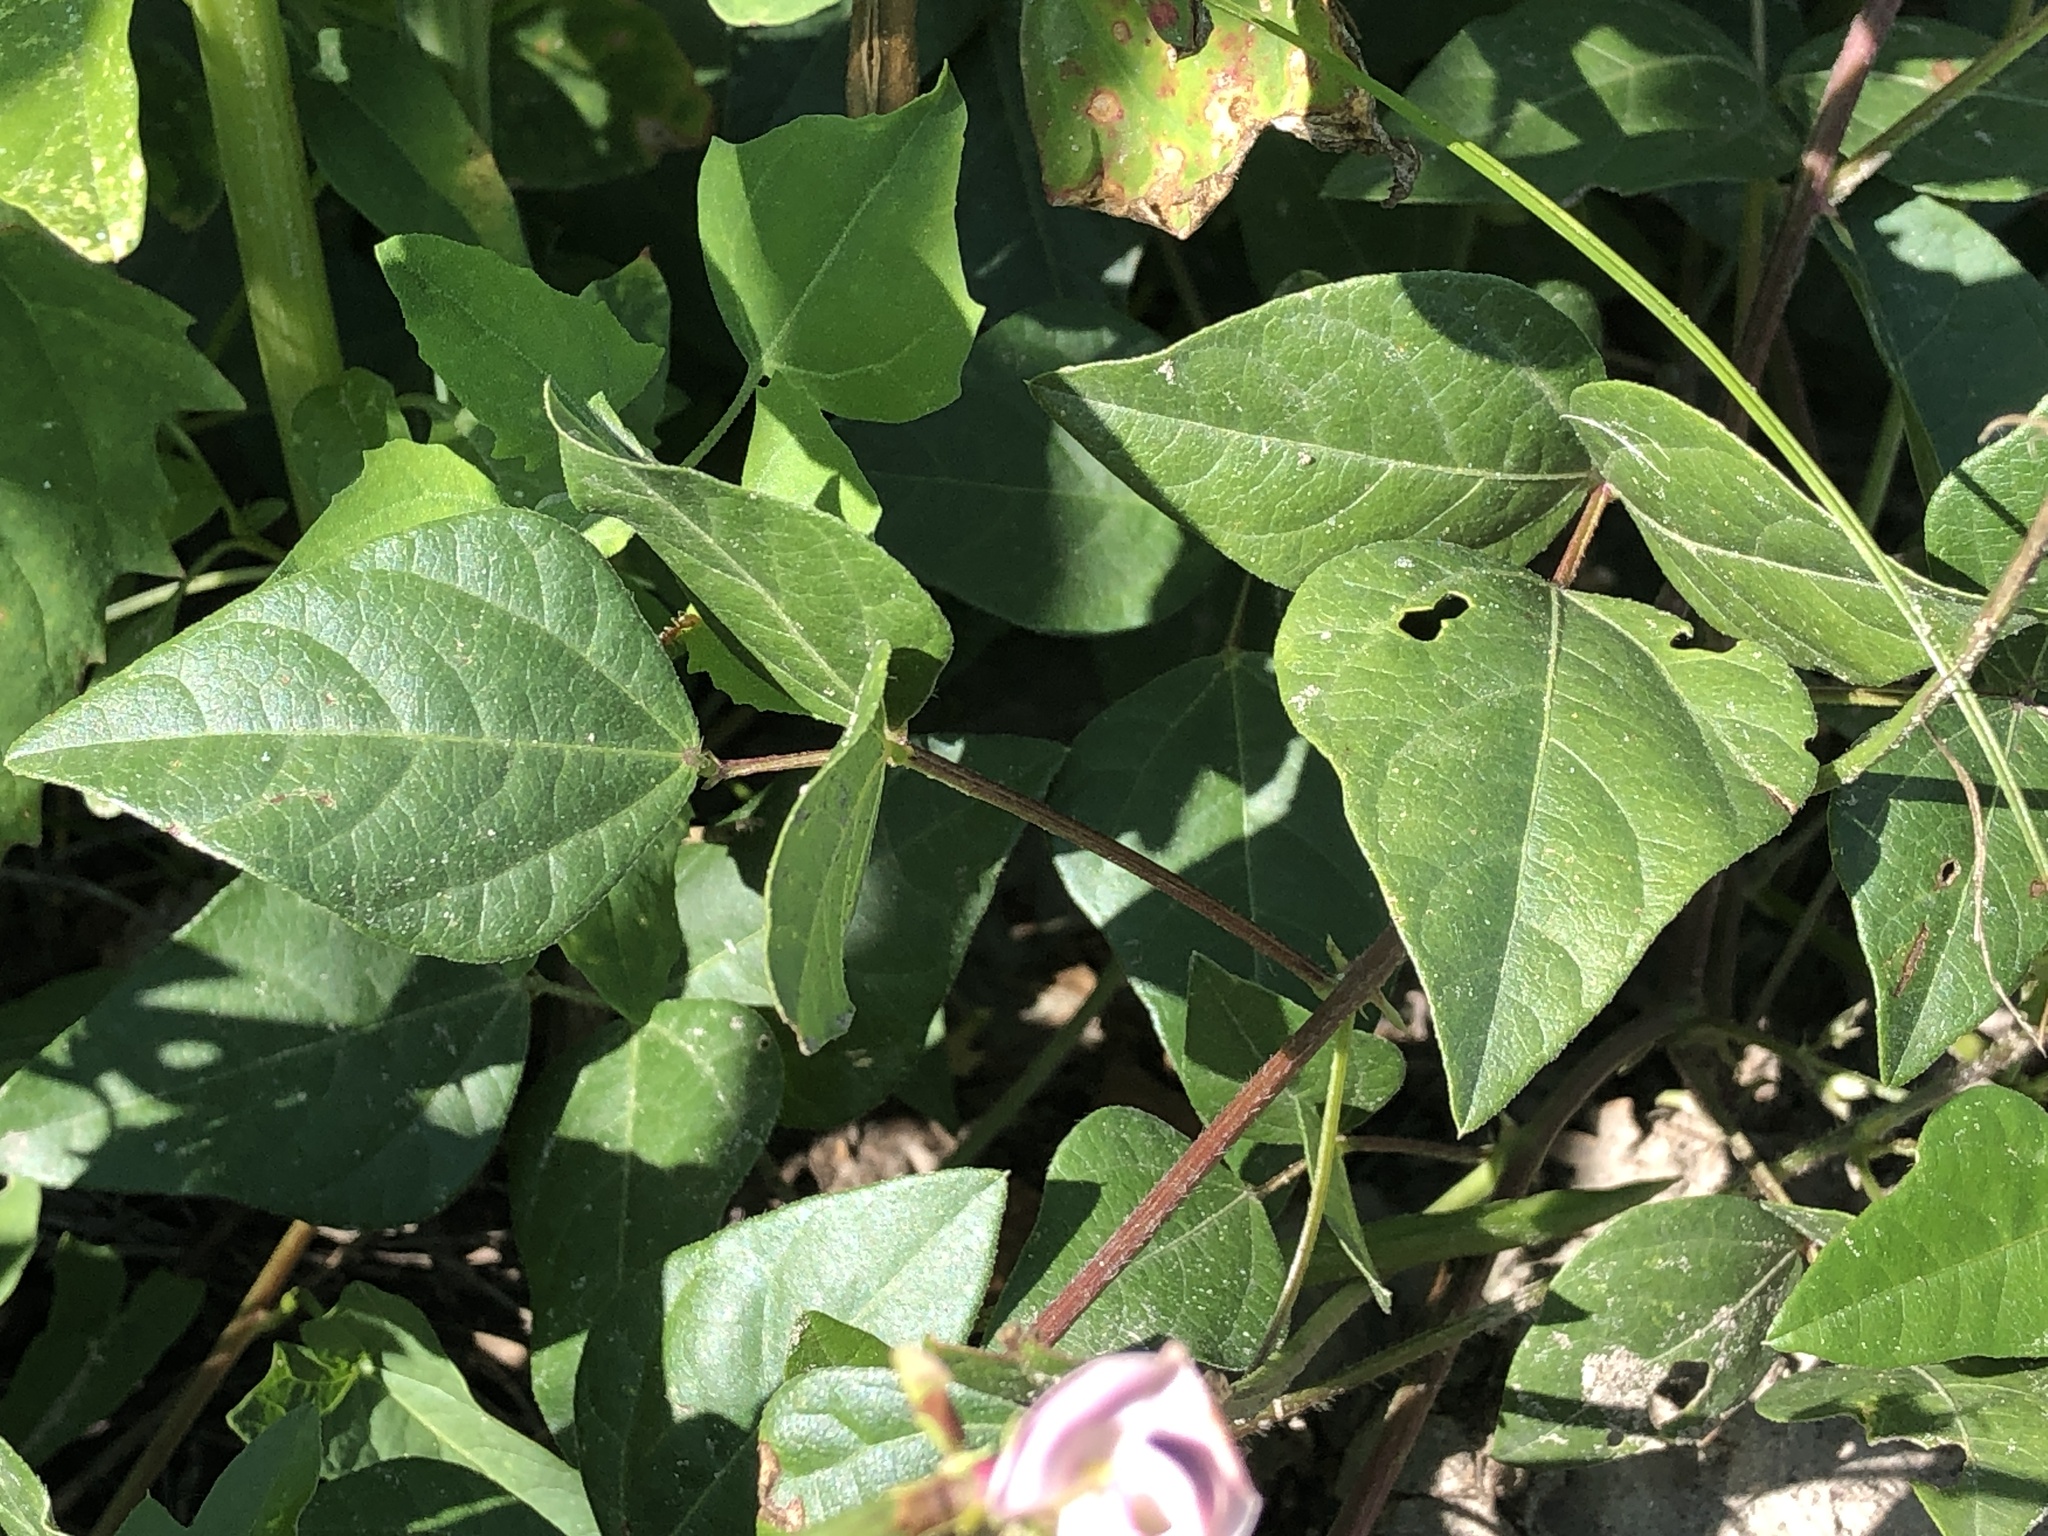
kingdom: Plantae
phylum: Tracheophyta
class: Magnoliopsida
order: Fabales
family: Fabaceae
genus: Strophostyles
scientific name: Strophostyles helvola
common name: Trailing wild bean
